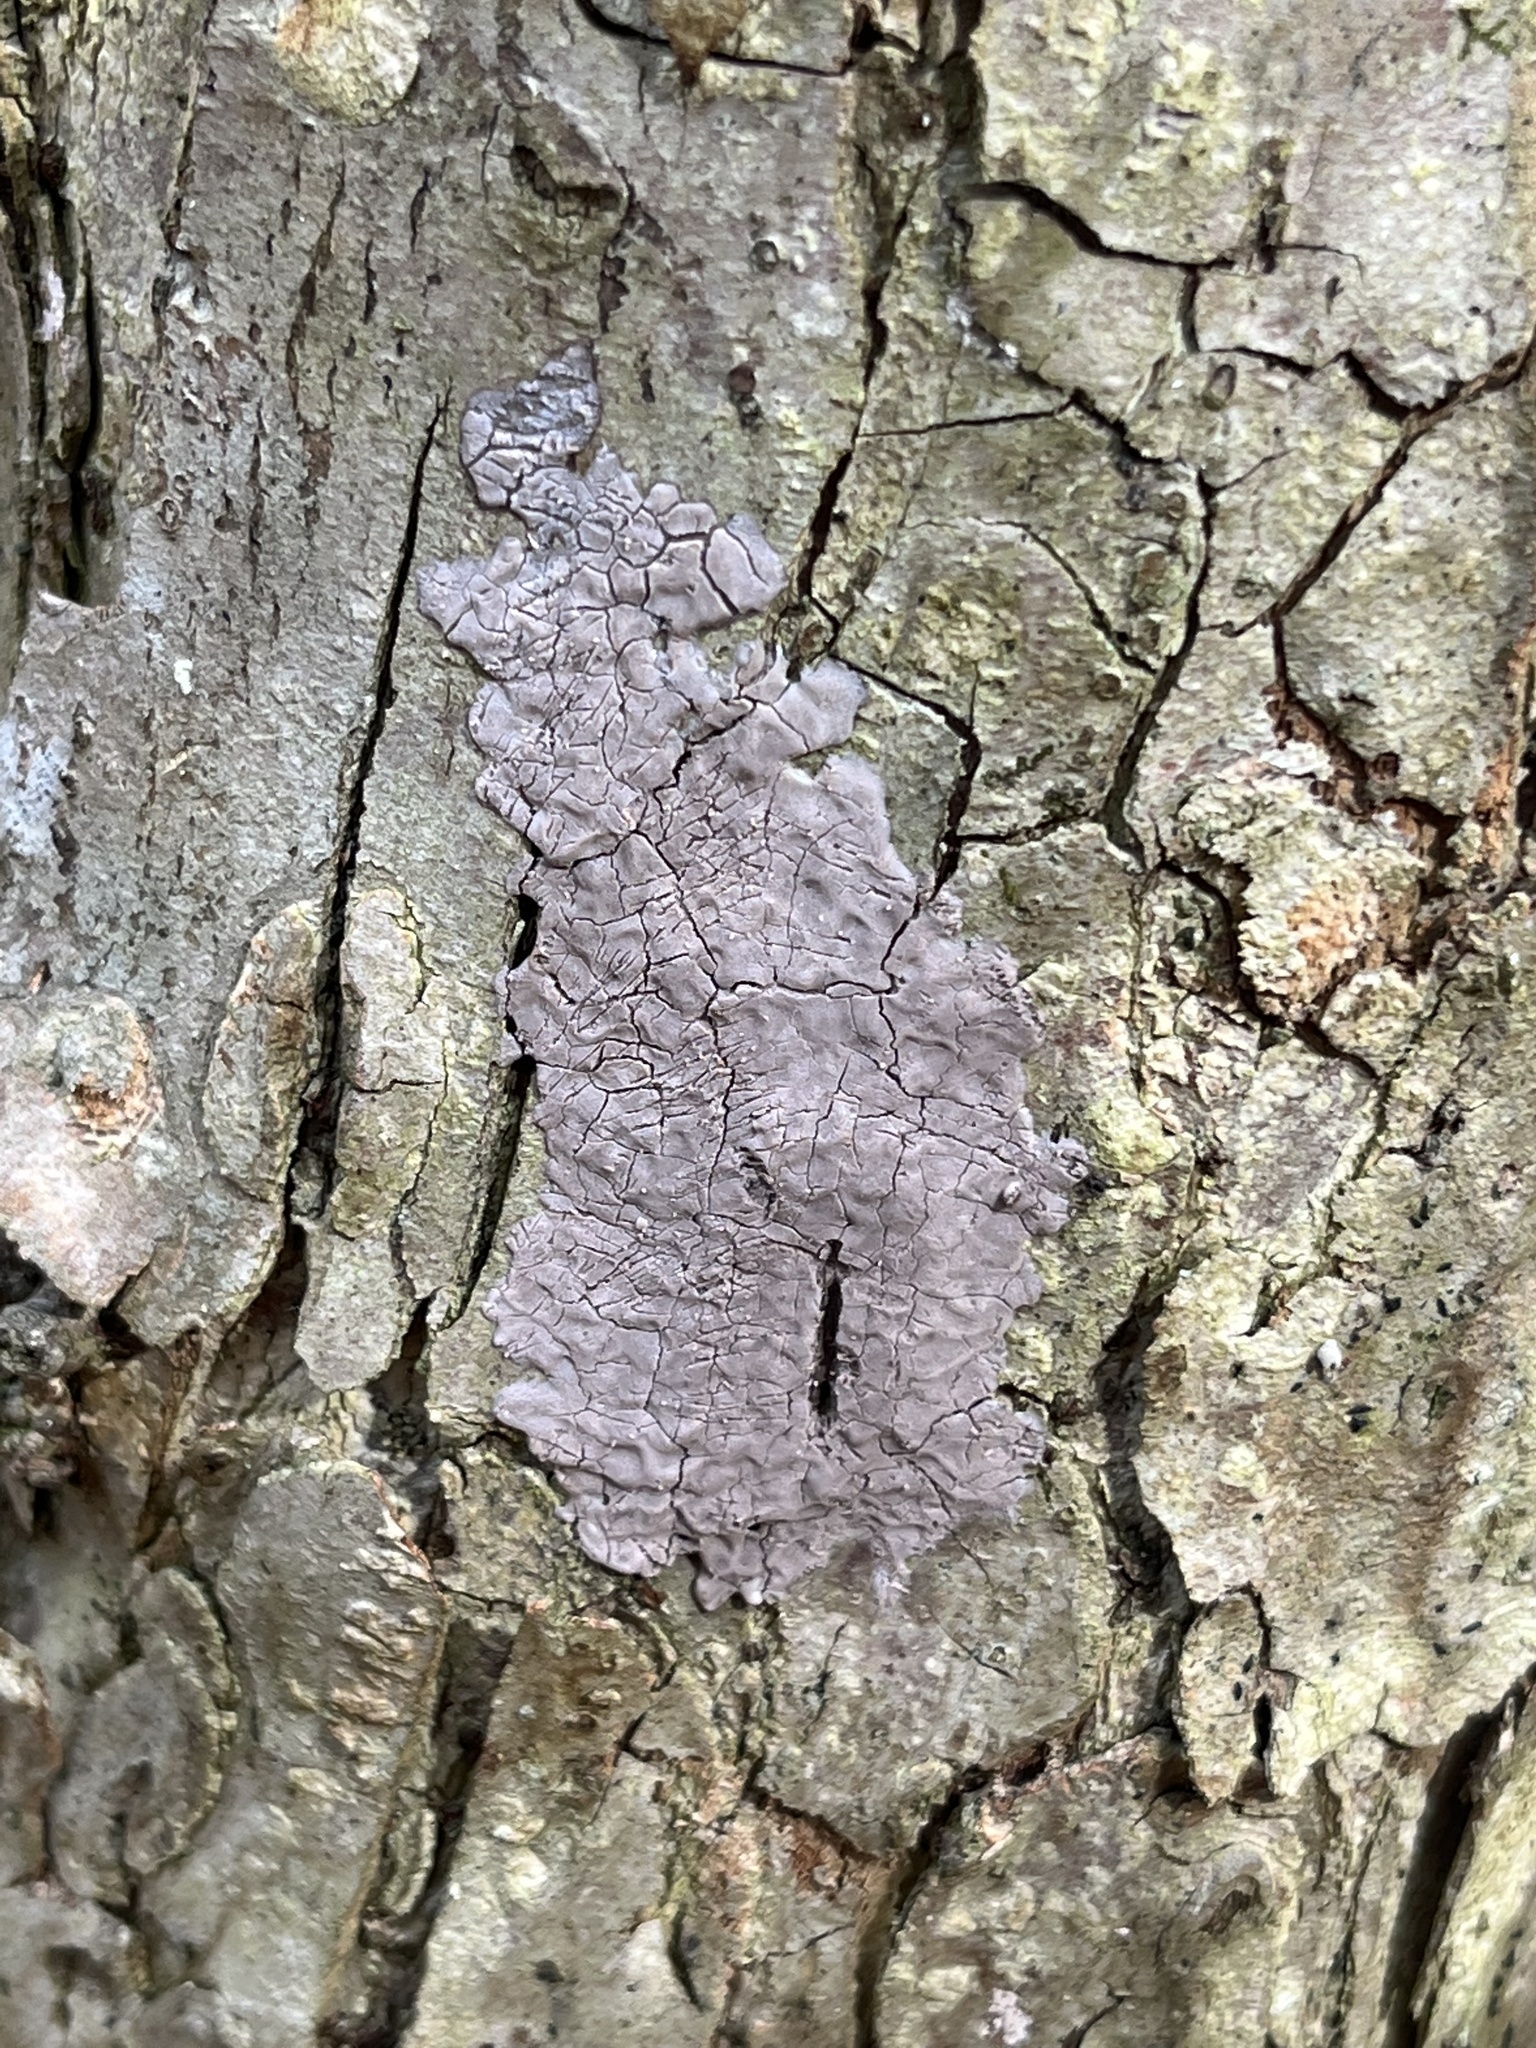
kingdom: Animalia
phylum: Arthropoda
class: Insecta
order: Hemiptera
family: Fulgoridae
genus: Lycorma
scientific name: Lycorma delicatula
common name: Spotted lanternfly
